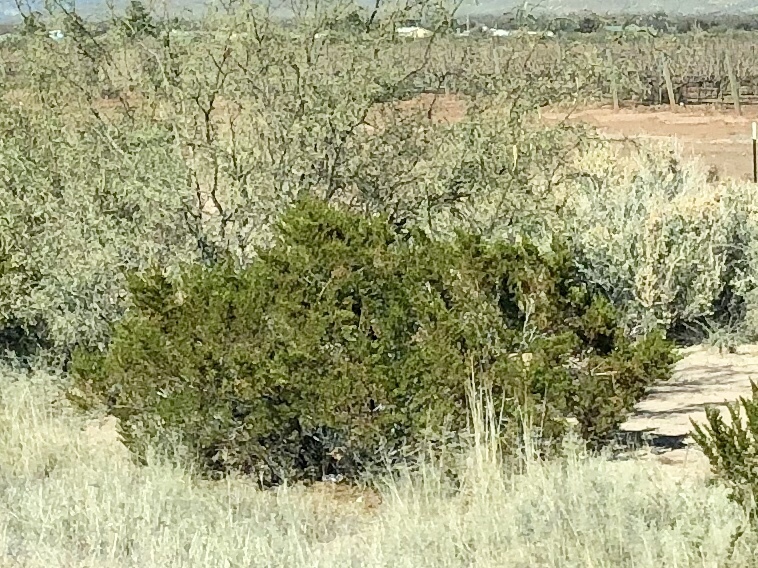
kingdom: Plantae
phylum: Tracheophyta
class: Magnoliopsida
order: Zygophyllales
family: Zygophyllaceae
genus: Larrea
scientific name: Larrea tridentata
